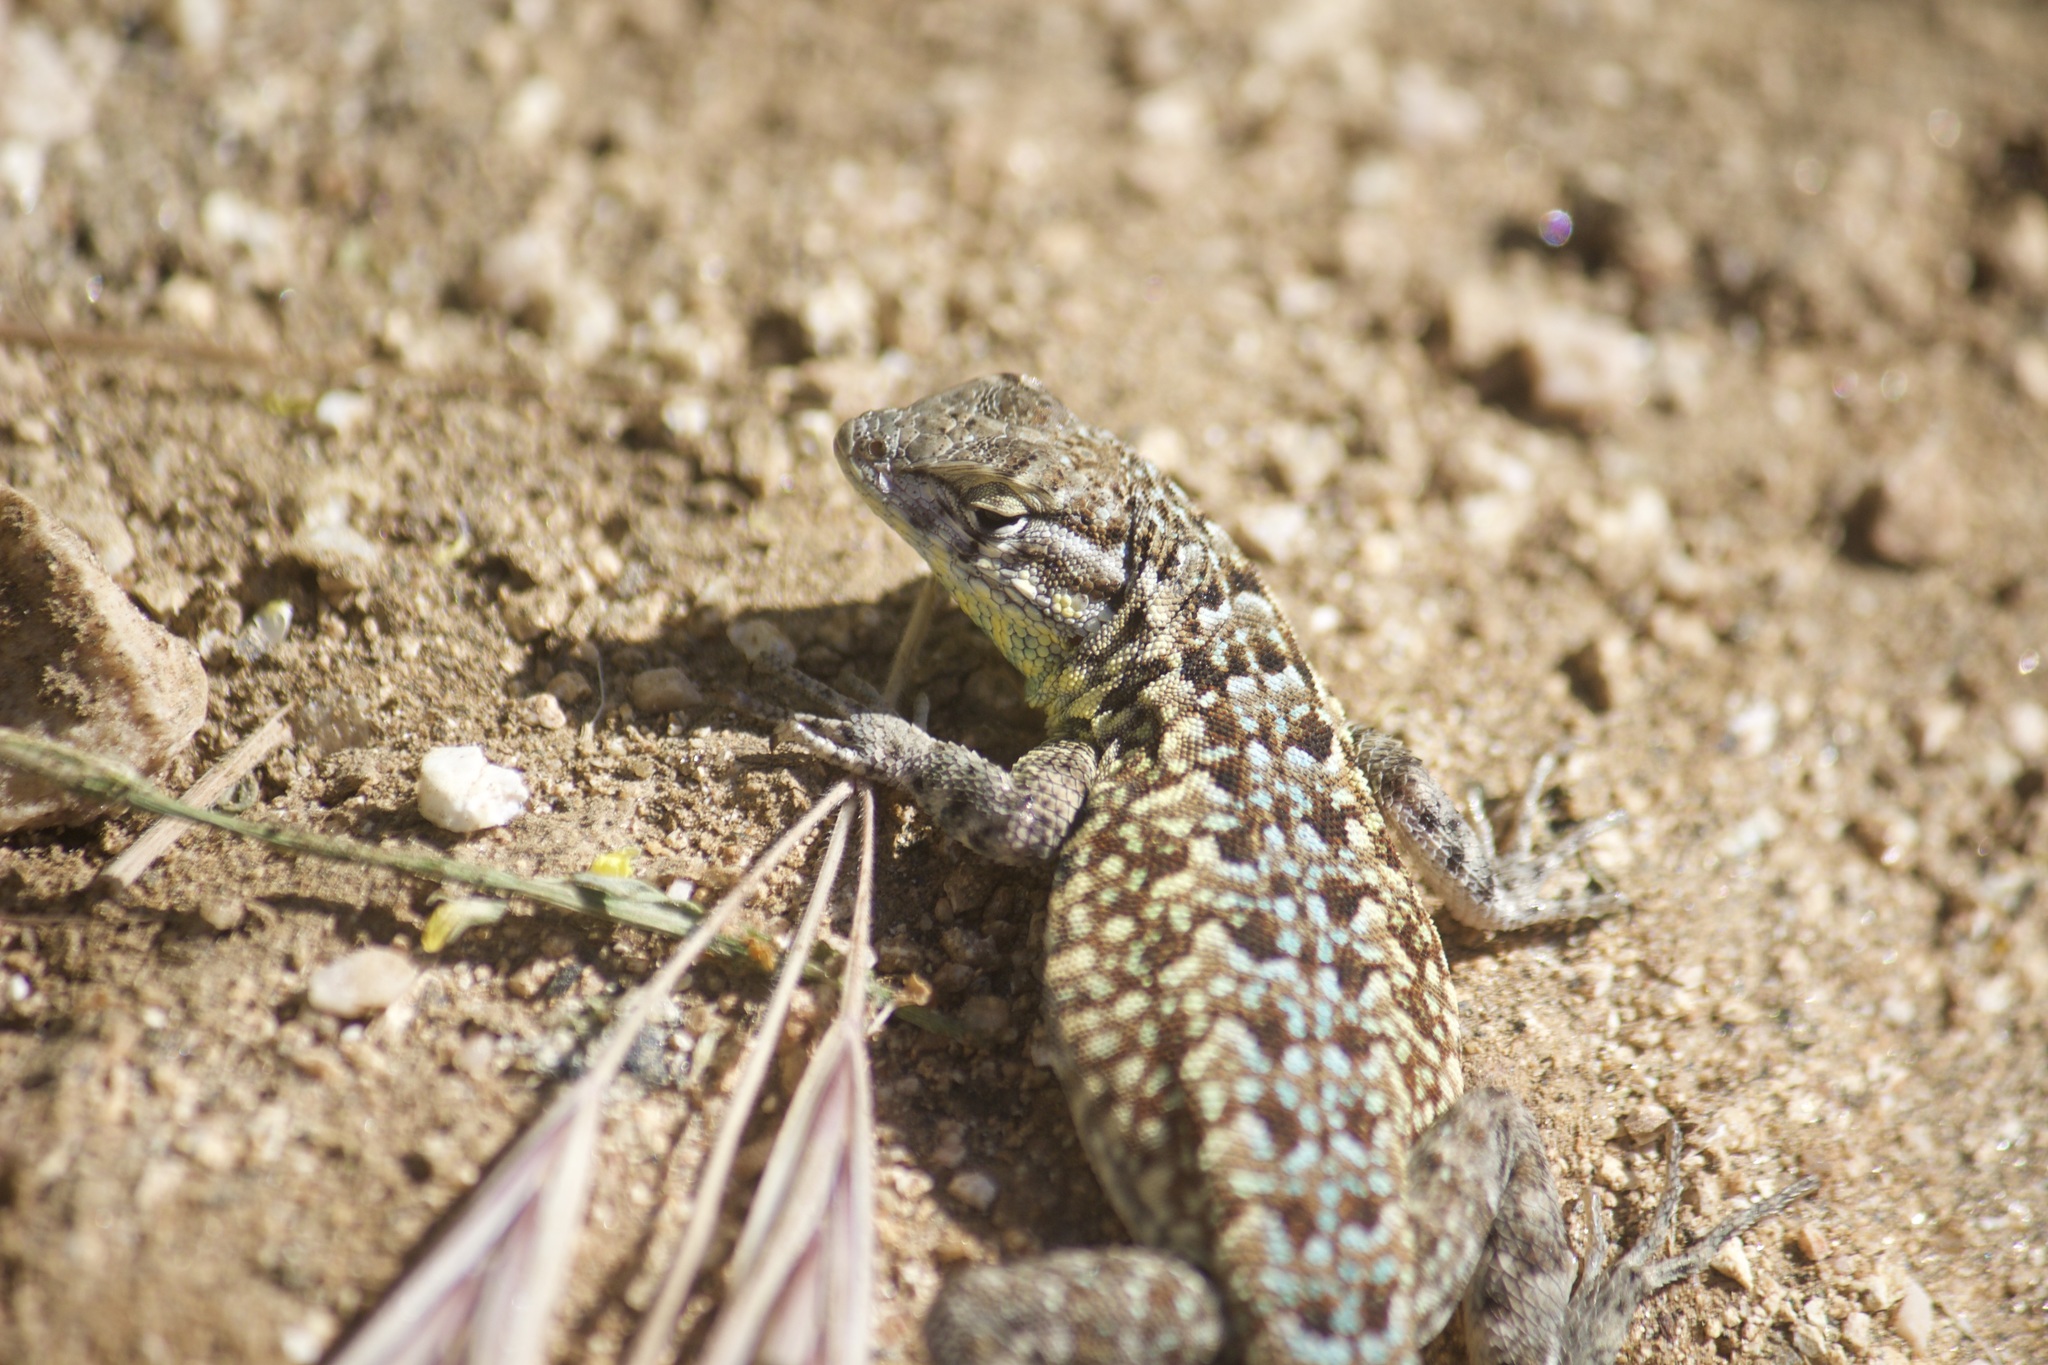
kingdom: Animalia
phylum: Chordata
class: Squamata
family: Phrynosomatidae
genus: Uta
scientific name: Uta stansburiana
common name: Side-blotched lizard
